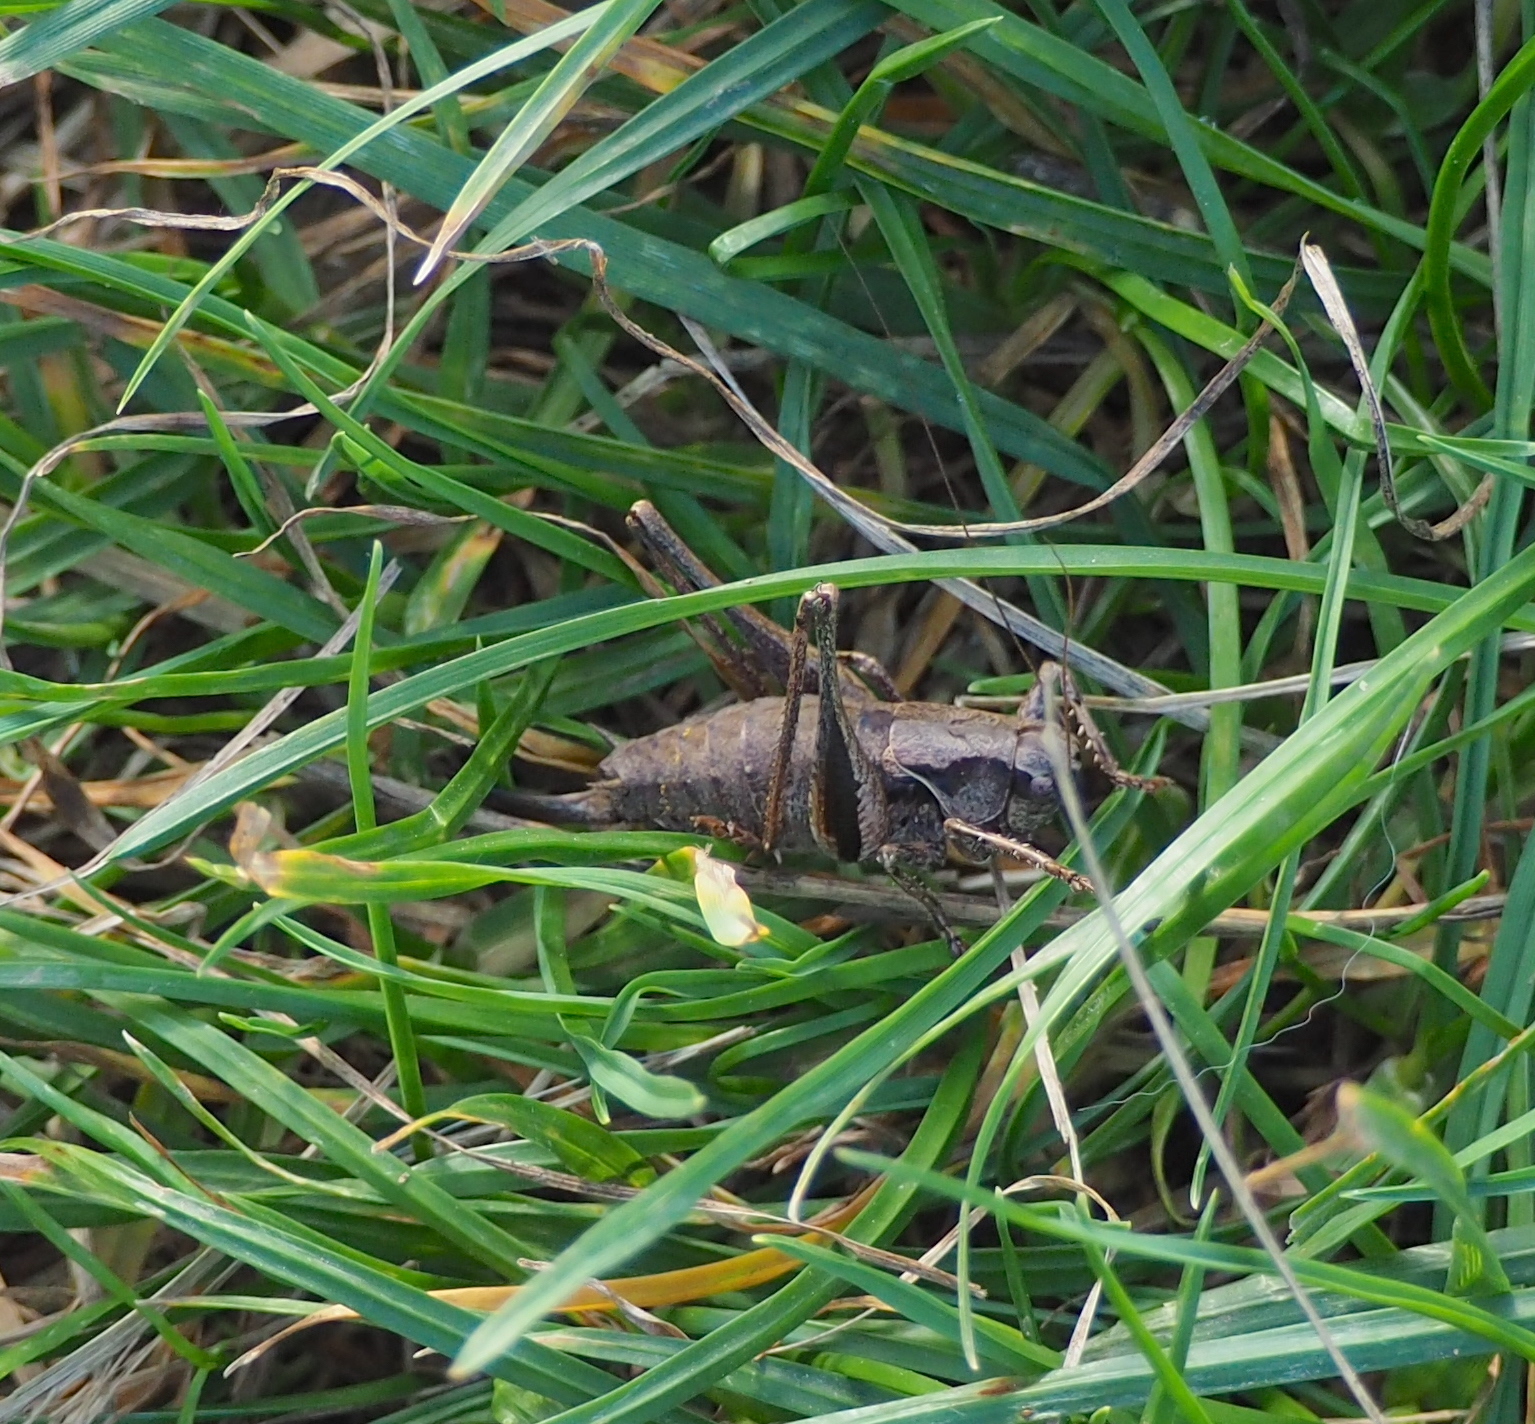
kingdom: Animalia
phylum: Arthropoda
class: Insecta
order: Orthoptera
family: Tettigoniidae
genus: Pholidoptera
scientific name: Pholidoptera griseoaptera
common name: Dark bush-cricket
